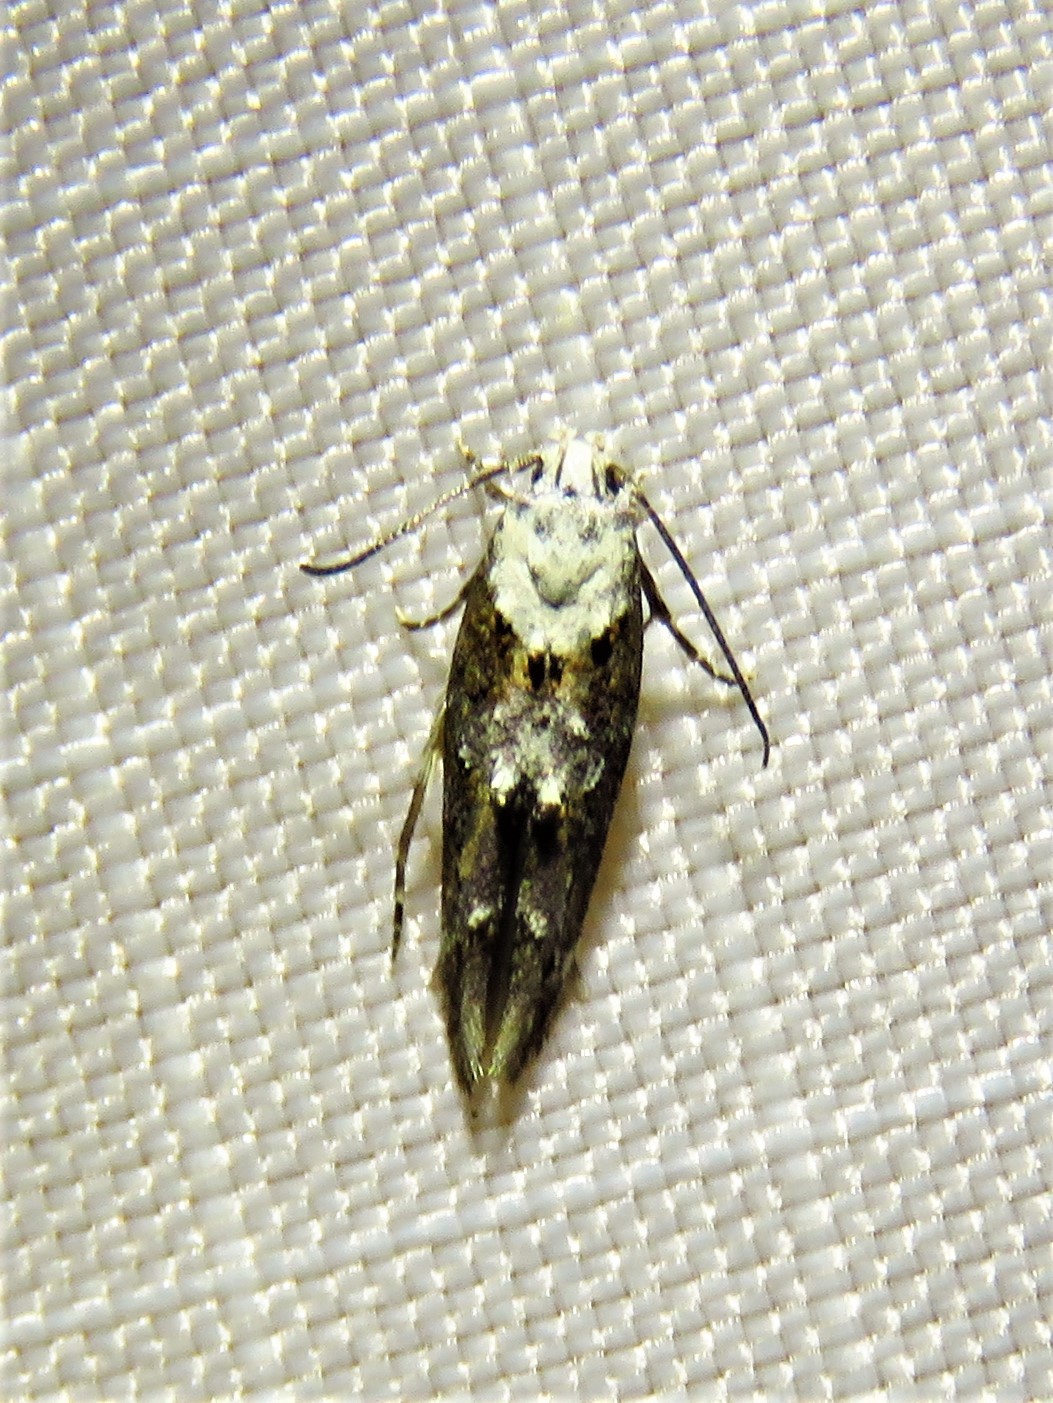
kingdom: Animalia
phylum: Arthropoda
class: Insecta
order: Lepidoptera
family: Momphidae
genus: Mompha
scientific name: Mompha albocapitella
